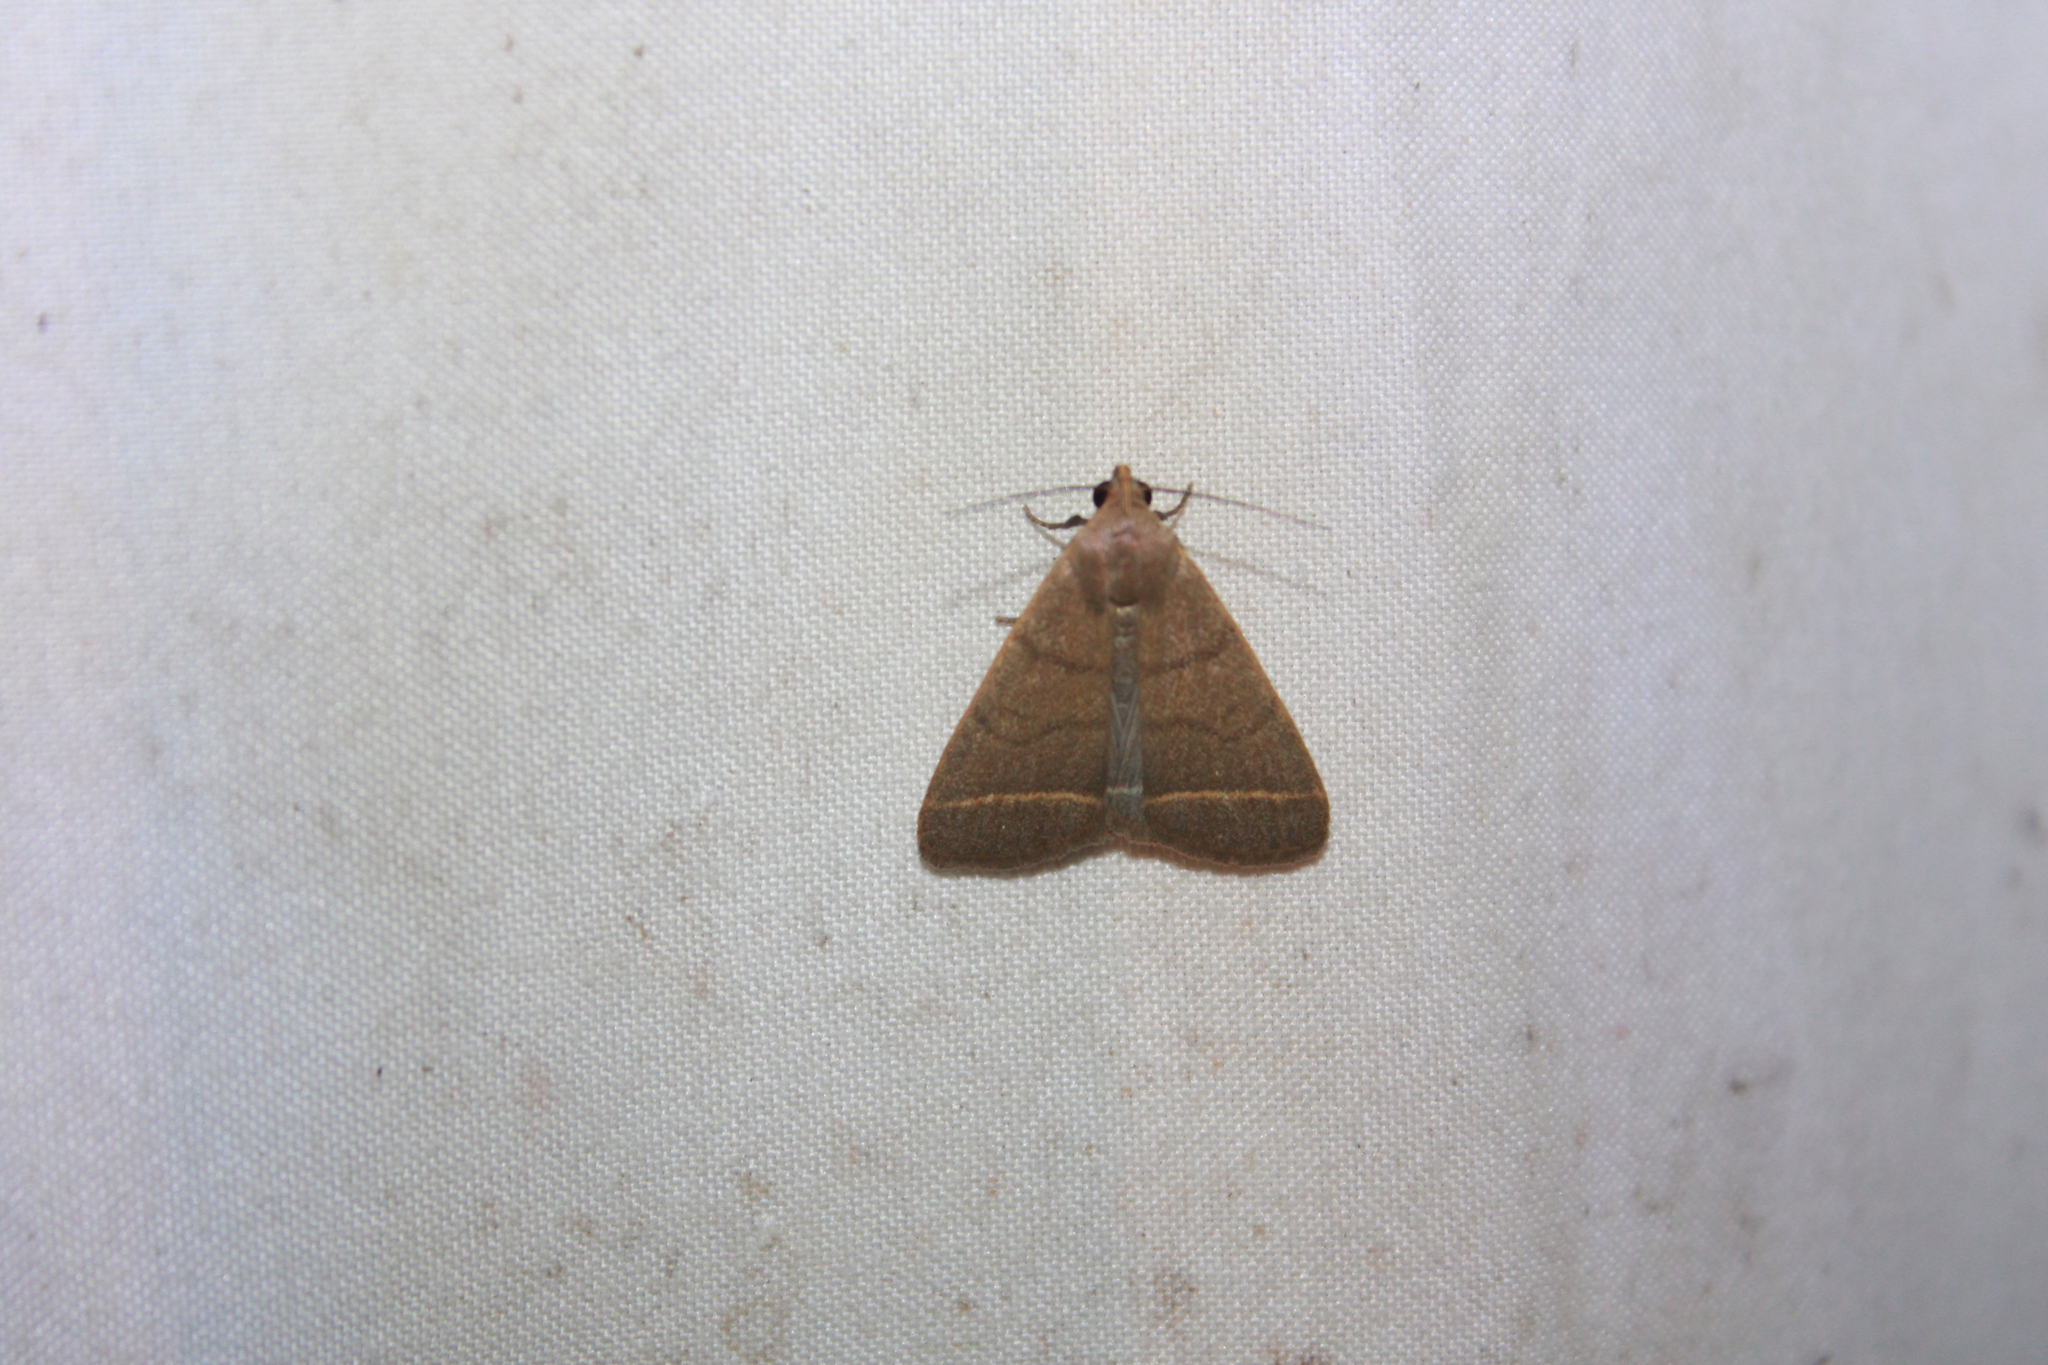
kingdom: Animalia
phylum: Arthropoda
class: Insecta
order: Lepidoptera
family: Erebidae
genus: Simplicia
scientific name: Simplicia cornicalis
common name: Tiki hut litter moth
